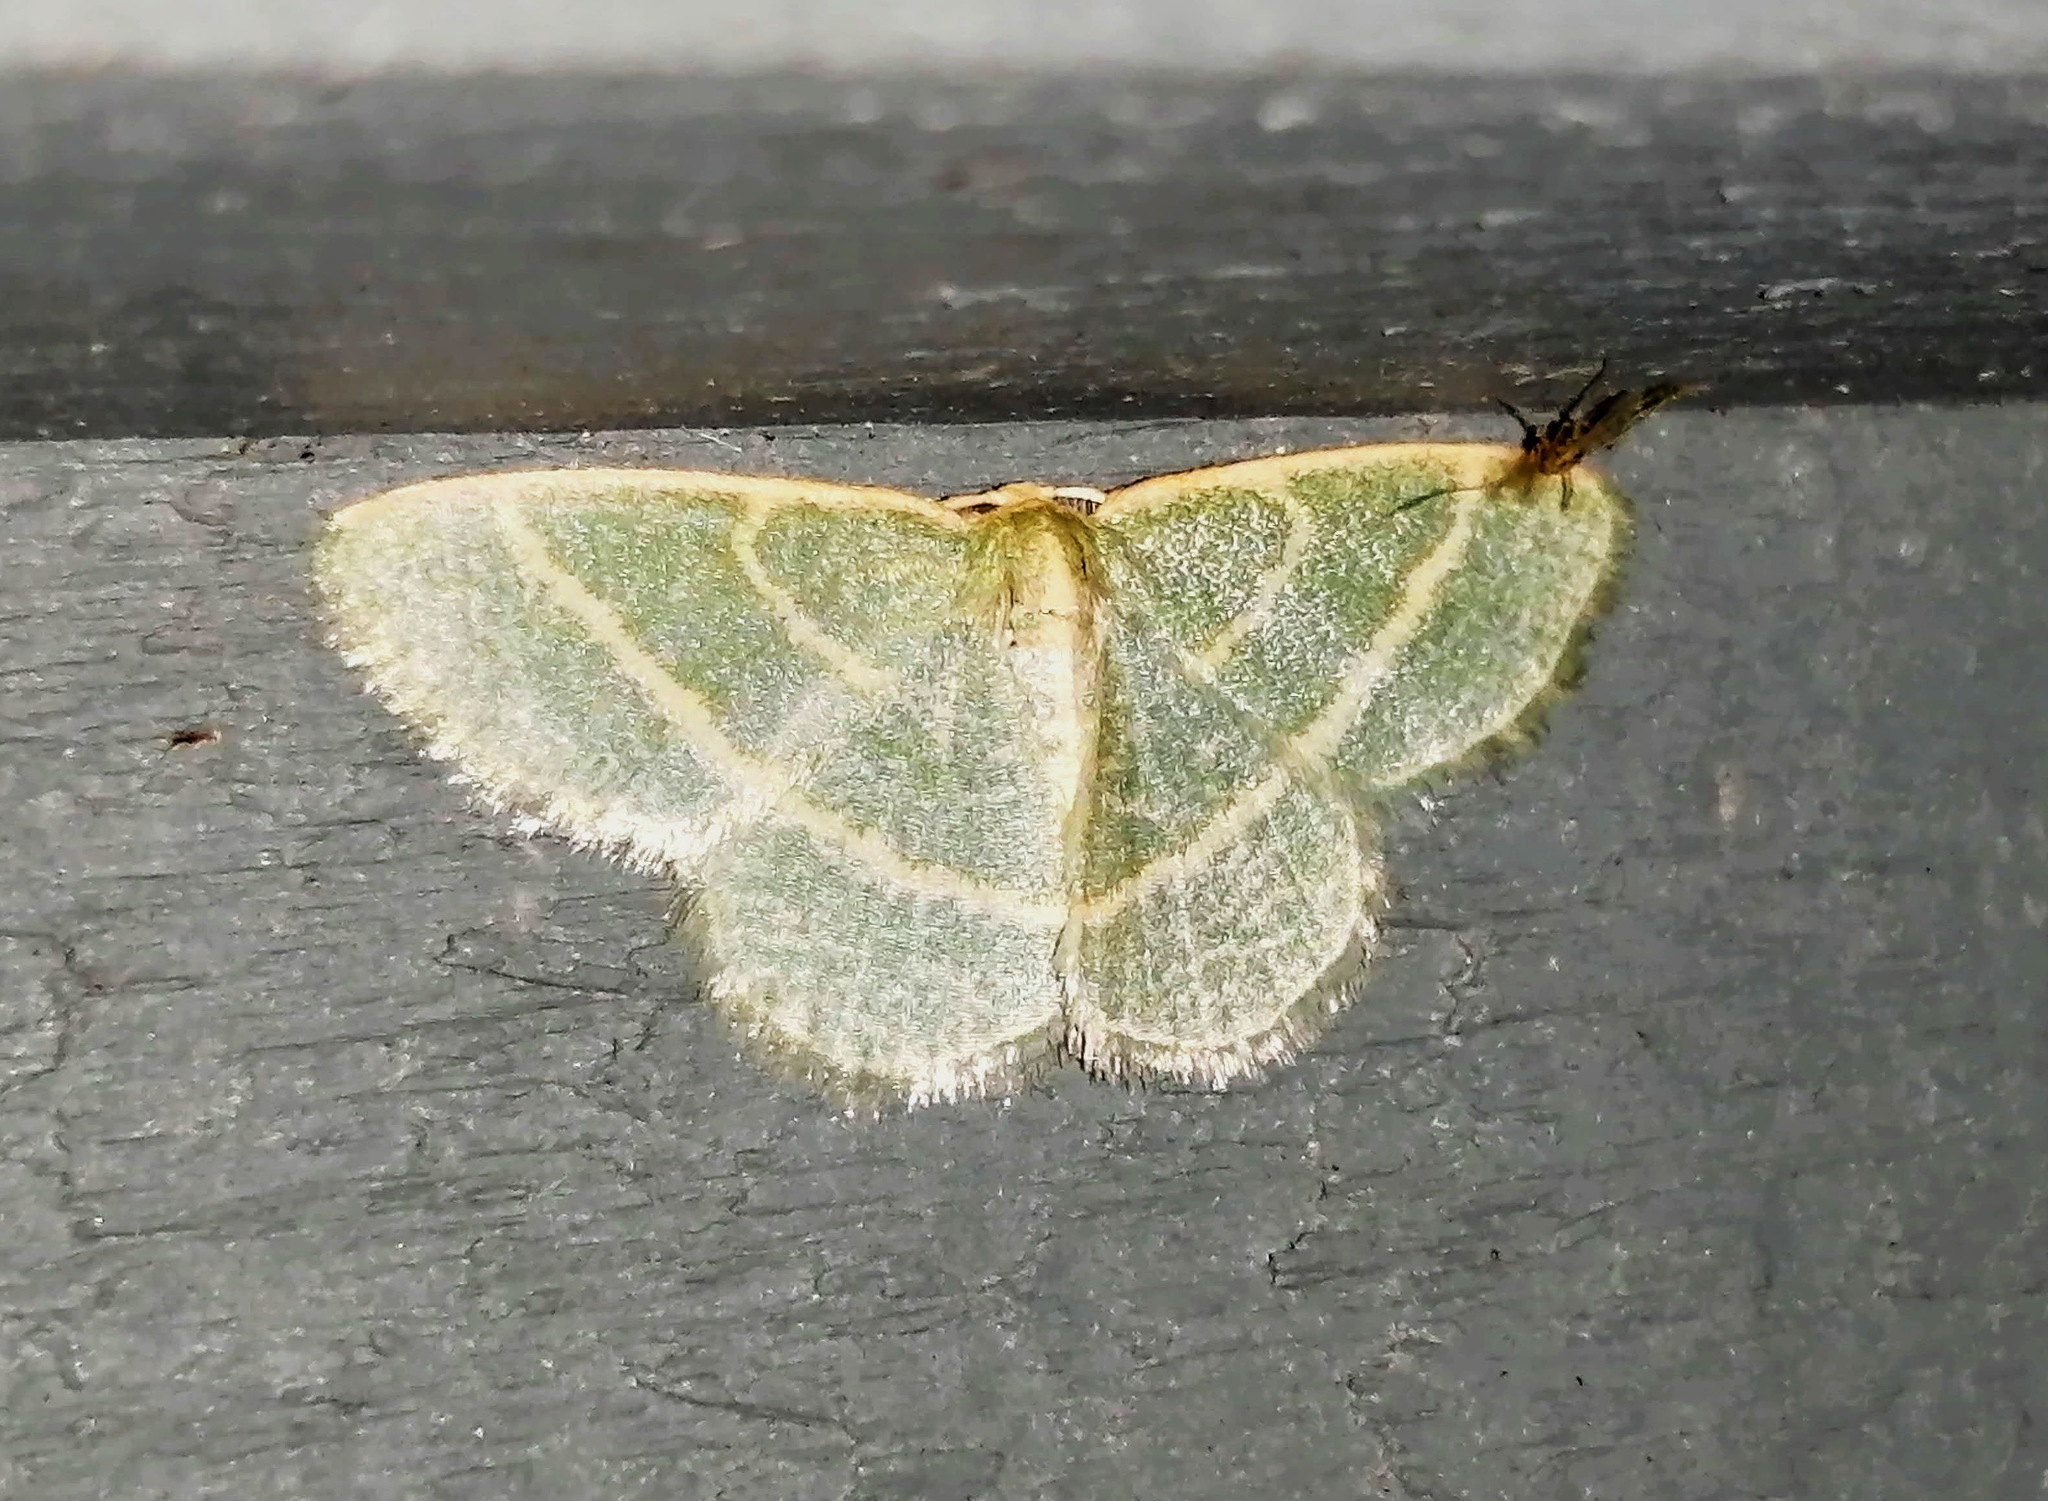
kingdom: Animalia
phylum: Arthropoda
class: Insecta
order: Lepidoptera
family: Geometridae
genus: Chlorochlamys
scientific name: Chlorochlamys chloroleucaria
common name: Blackberry looper
